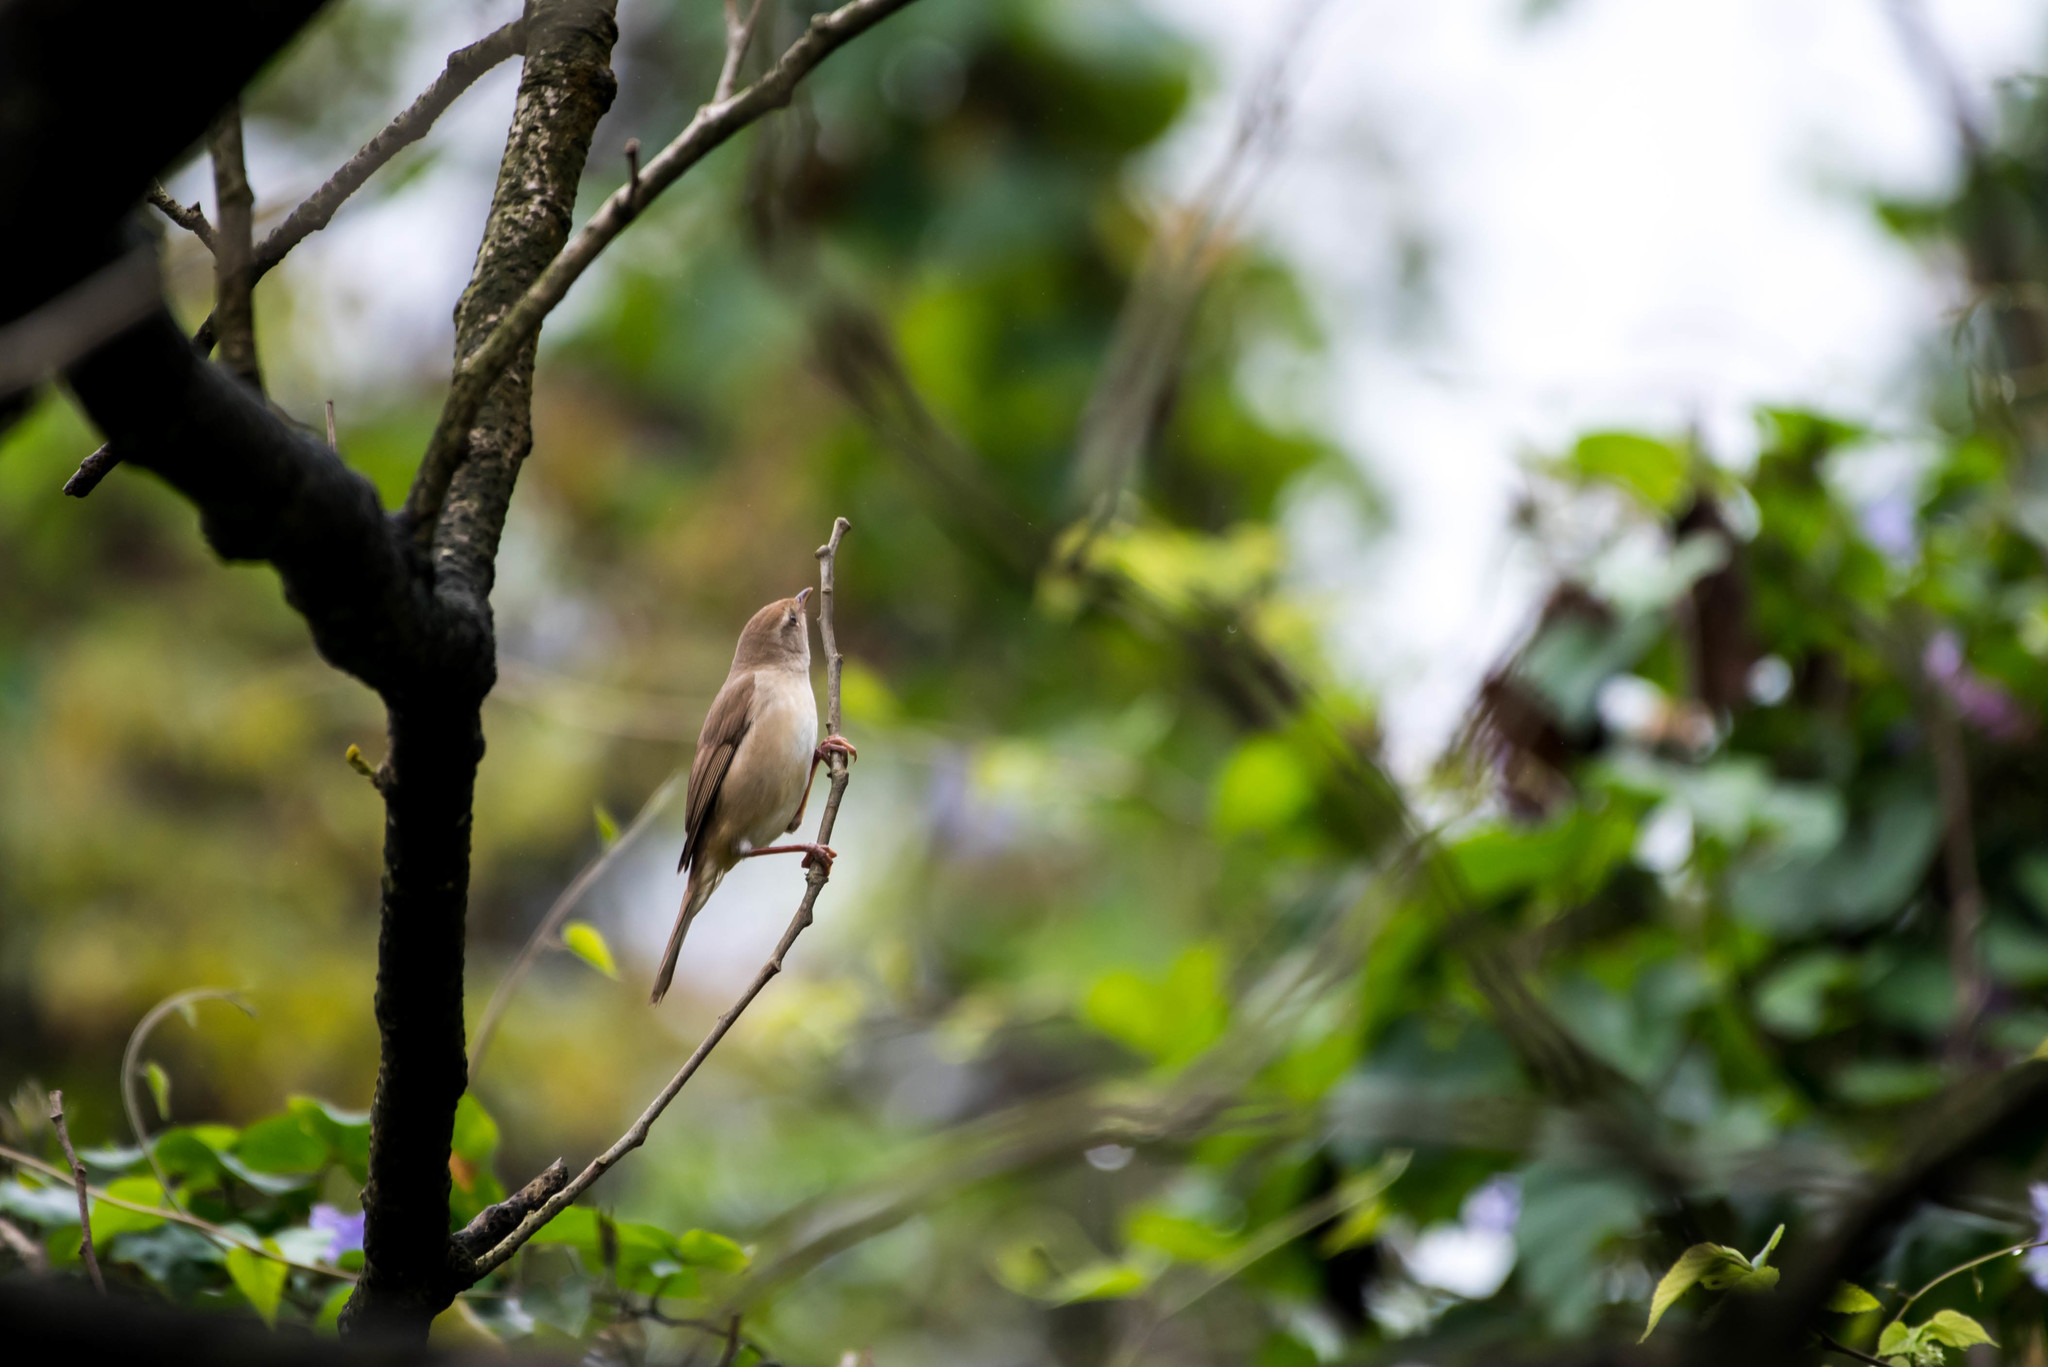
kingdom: Animalia
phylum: Chordata
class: Aves
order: Passeriformes
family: Cettiidae
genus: Horornis
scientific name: Horornis diphone
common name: Japanese bush warbler
